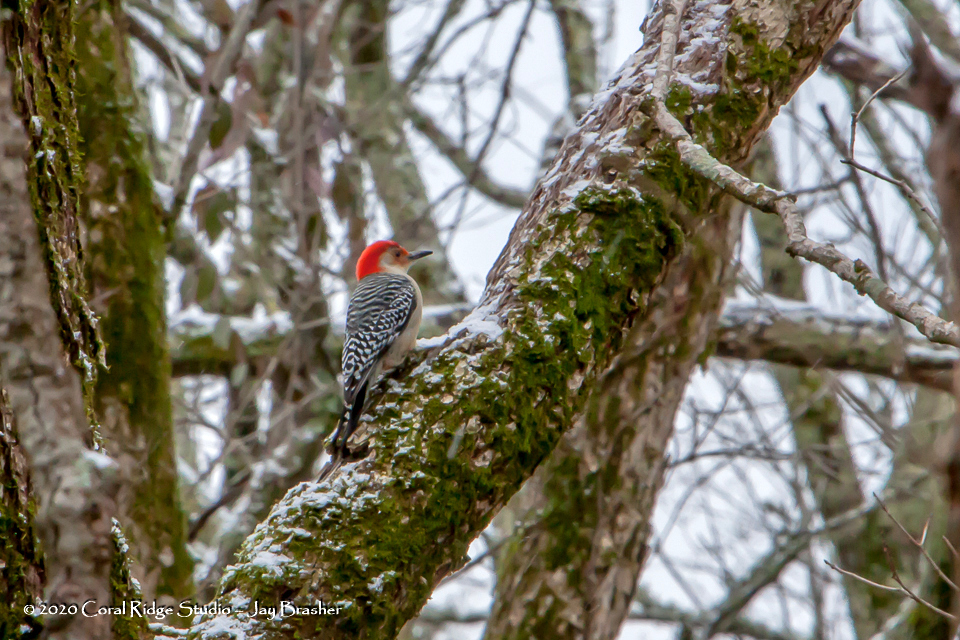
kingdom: Animalia
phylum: Chordata
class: Aves
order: Piciformes
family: Picidae
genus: Melanerpes
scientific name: Melanerpes carolinus
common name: Red-bellied woodpecker
